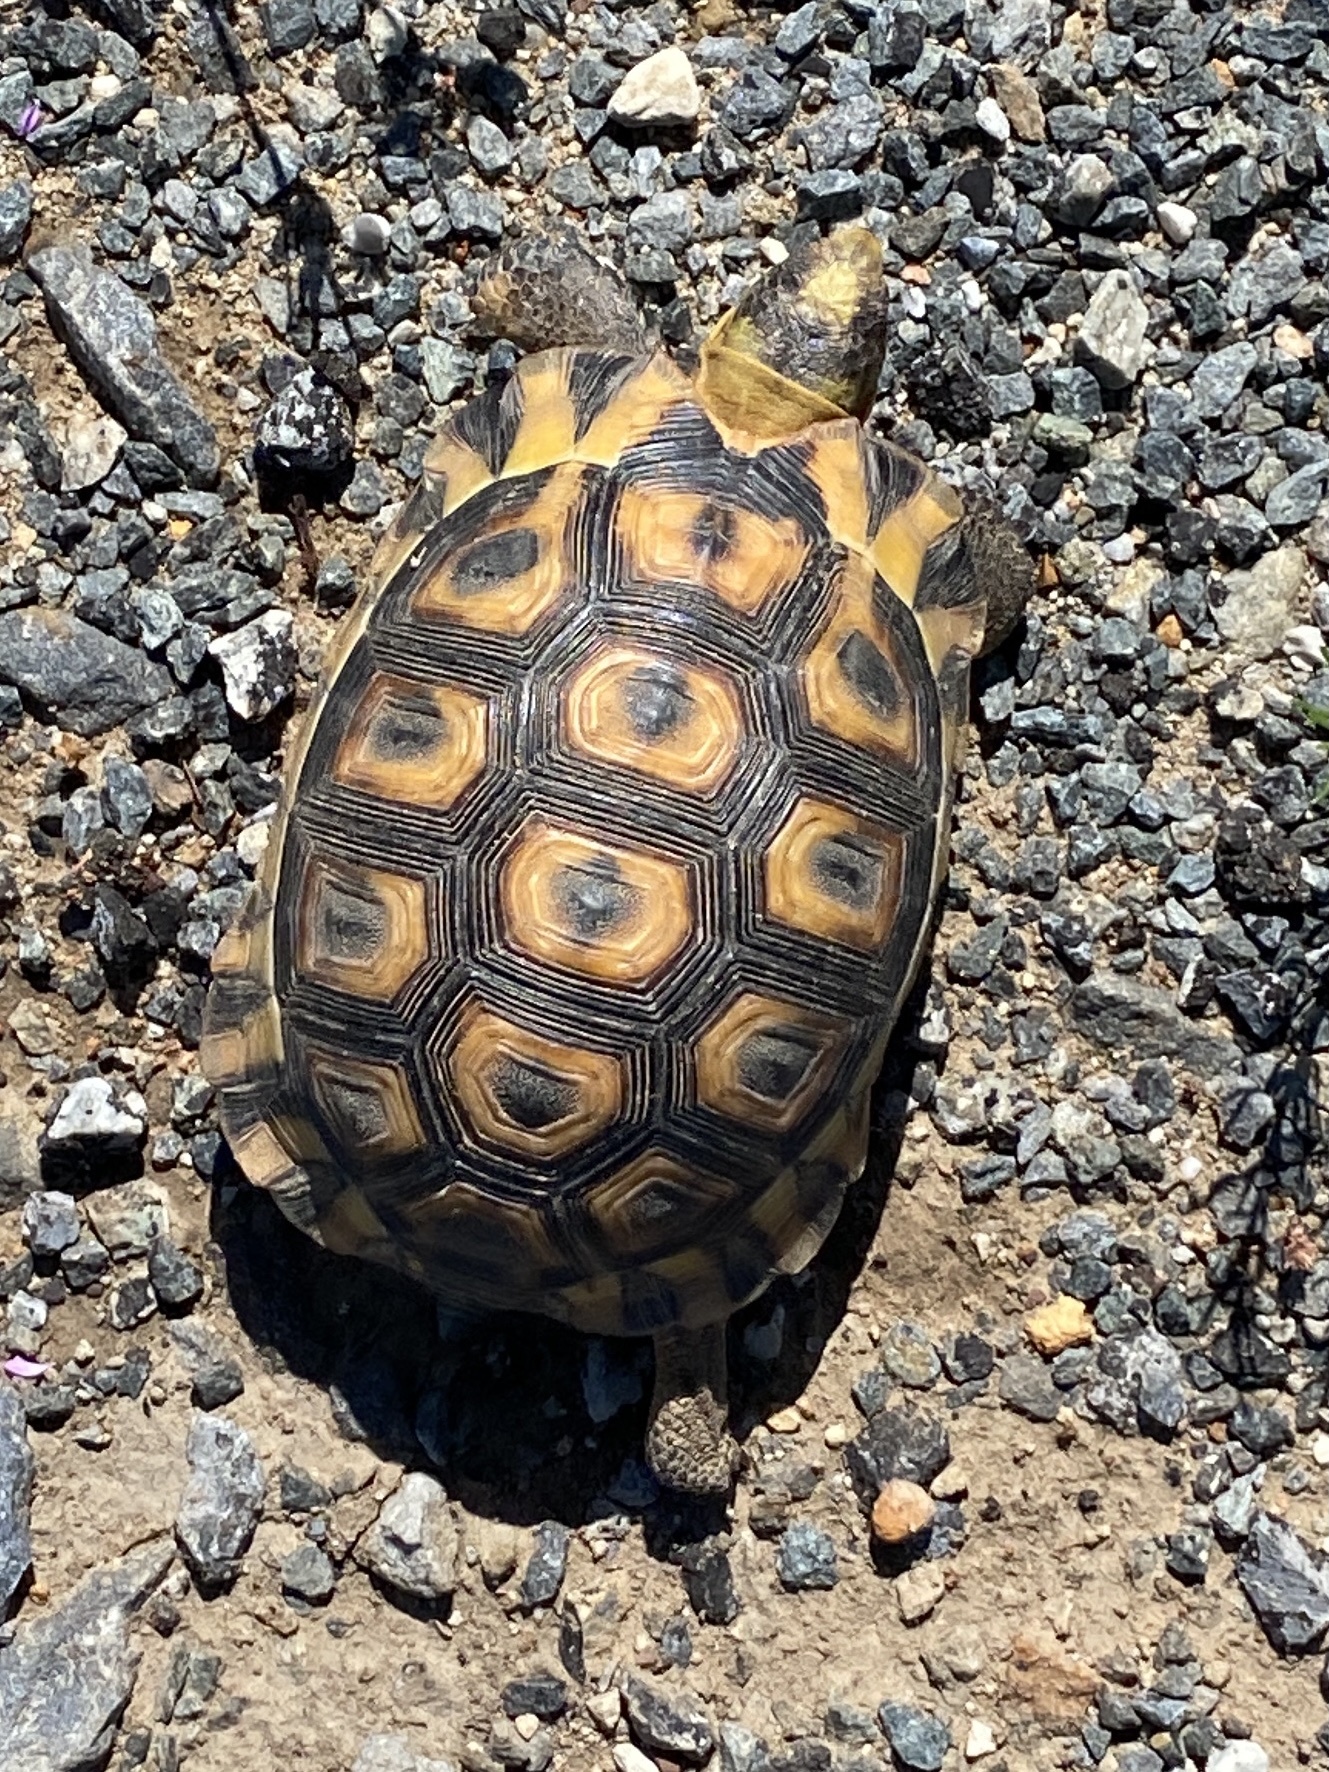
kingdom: Animalia
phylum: Chordata
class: Testudines
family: Testudinidae
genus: Chersina
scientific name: Chersina angulata
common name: South african bowsprit tortoise
